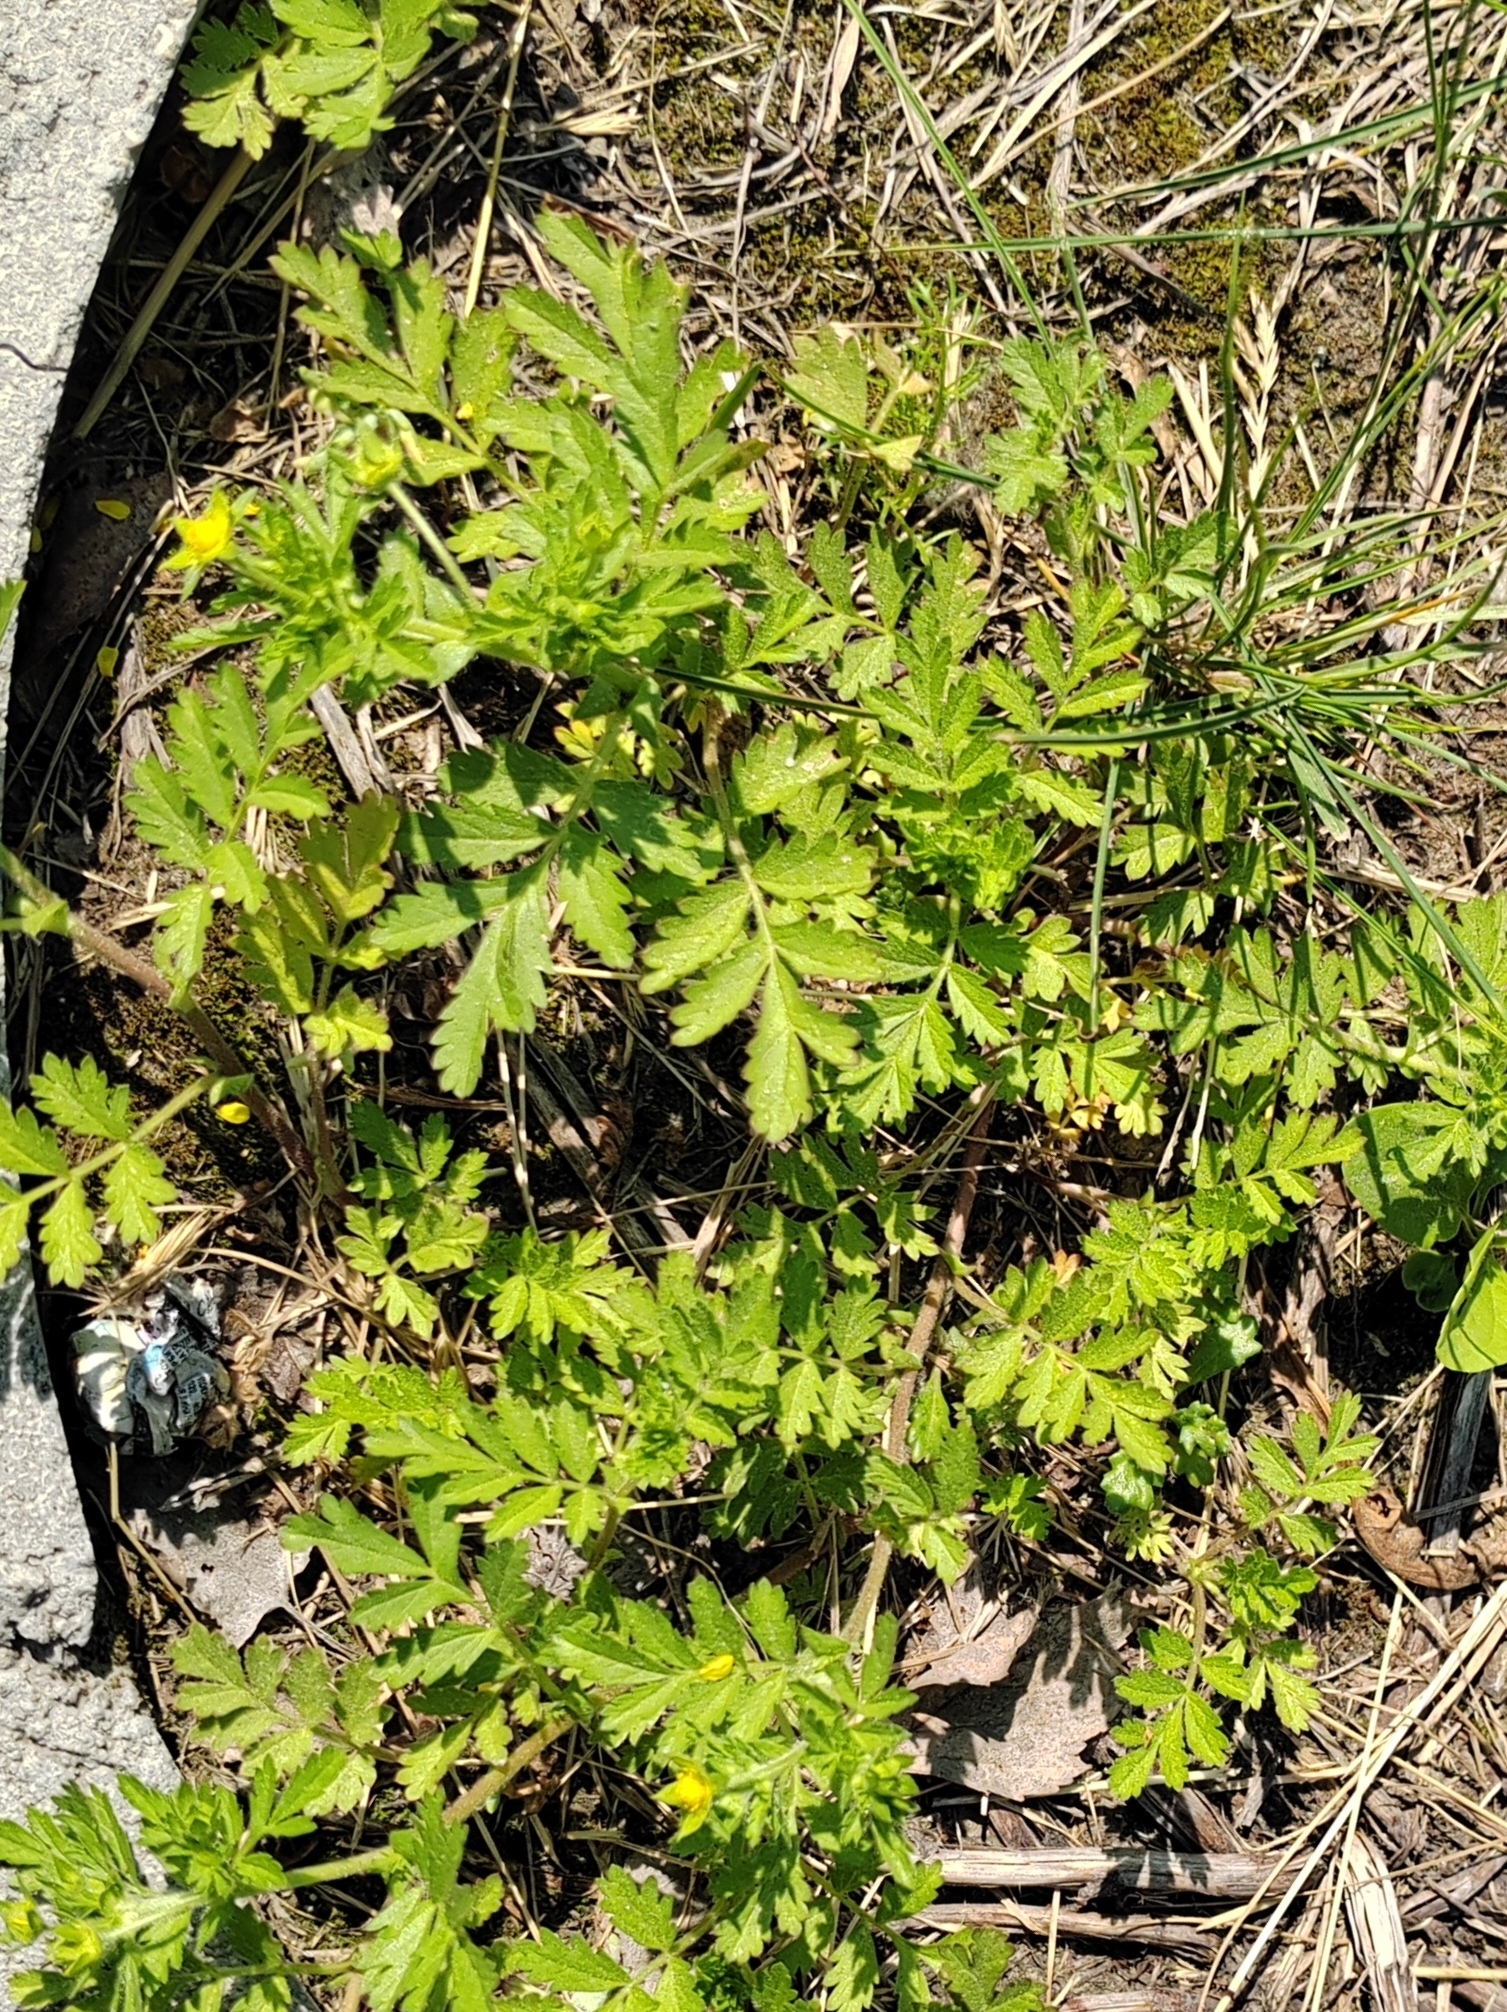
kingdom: Plantae
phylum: Tracheophyta
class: Magnoliopsida
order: Rosales
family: Rosaceae
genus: Potentilla
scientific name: Potentilla supina
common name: Prostrate cinquefoil
